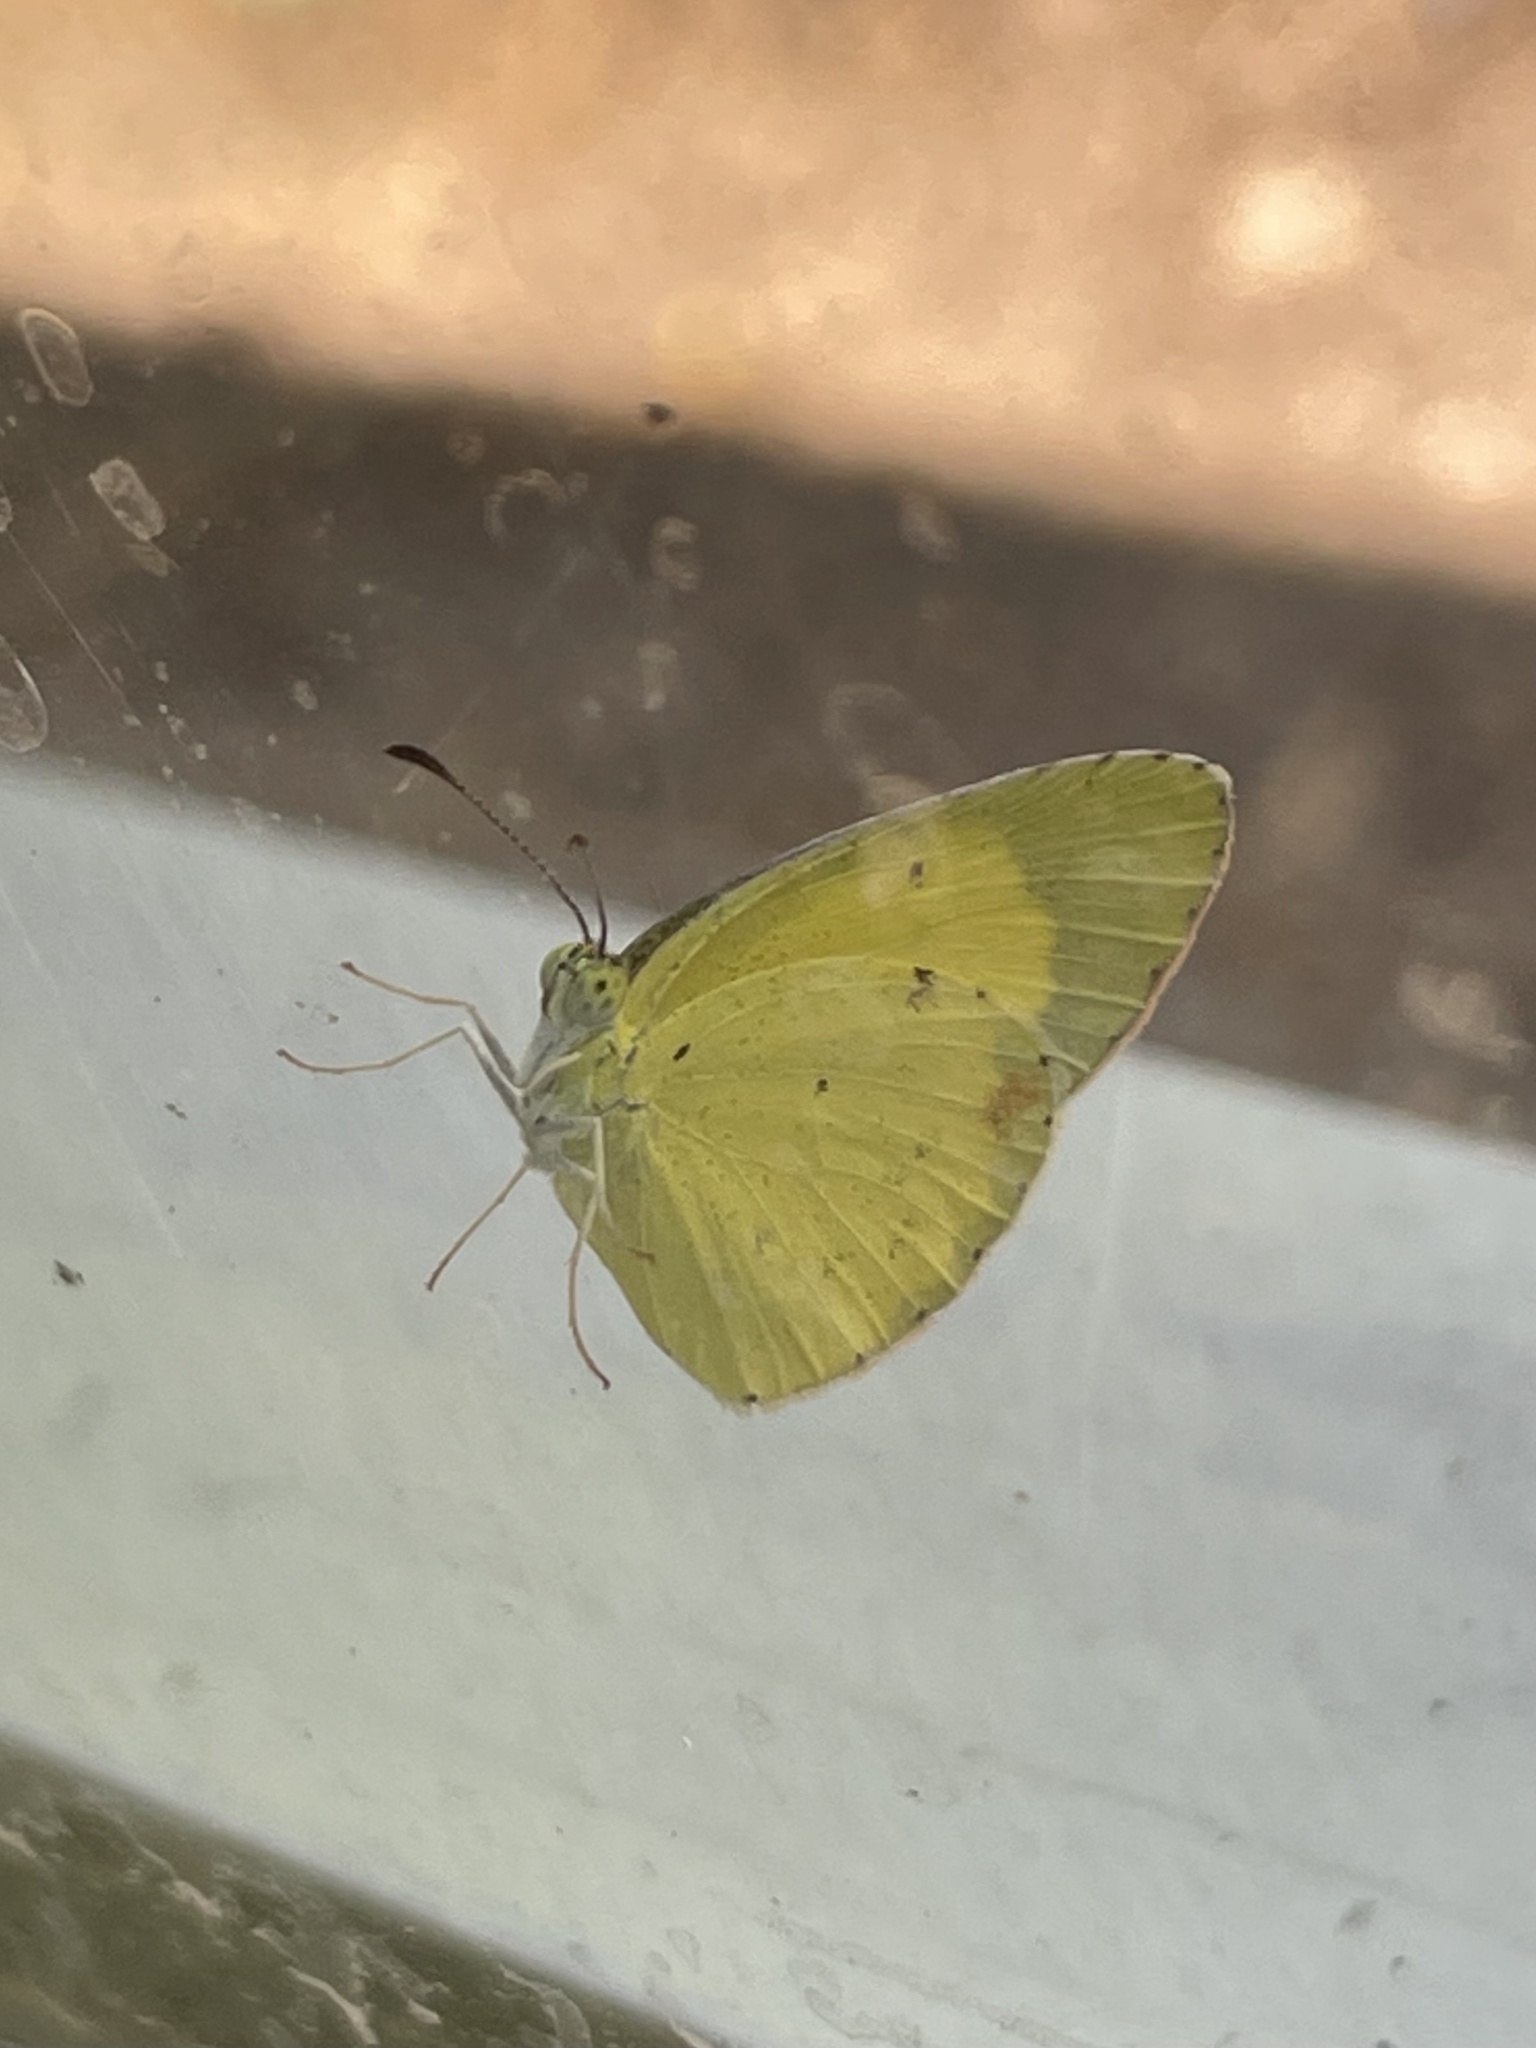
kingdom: Animalia
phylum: Arthropoda
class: Insecta
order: Lepidoptera
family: Pieridae
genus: Pyrisitia
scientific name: Pyrisitia lisa
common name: Little yellow
